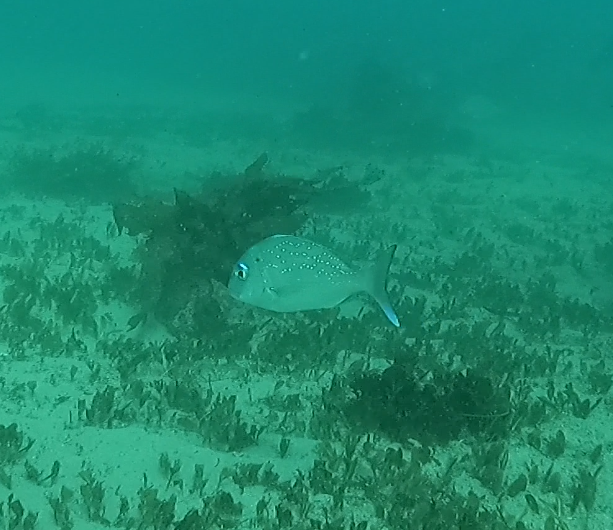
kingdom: Animalia
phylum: Chordata
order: Perciformes
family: Sparidae
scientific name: Sparidae
